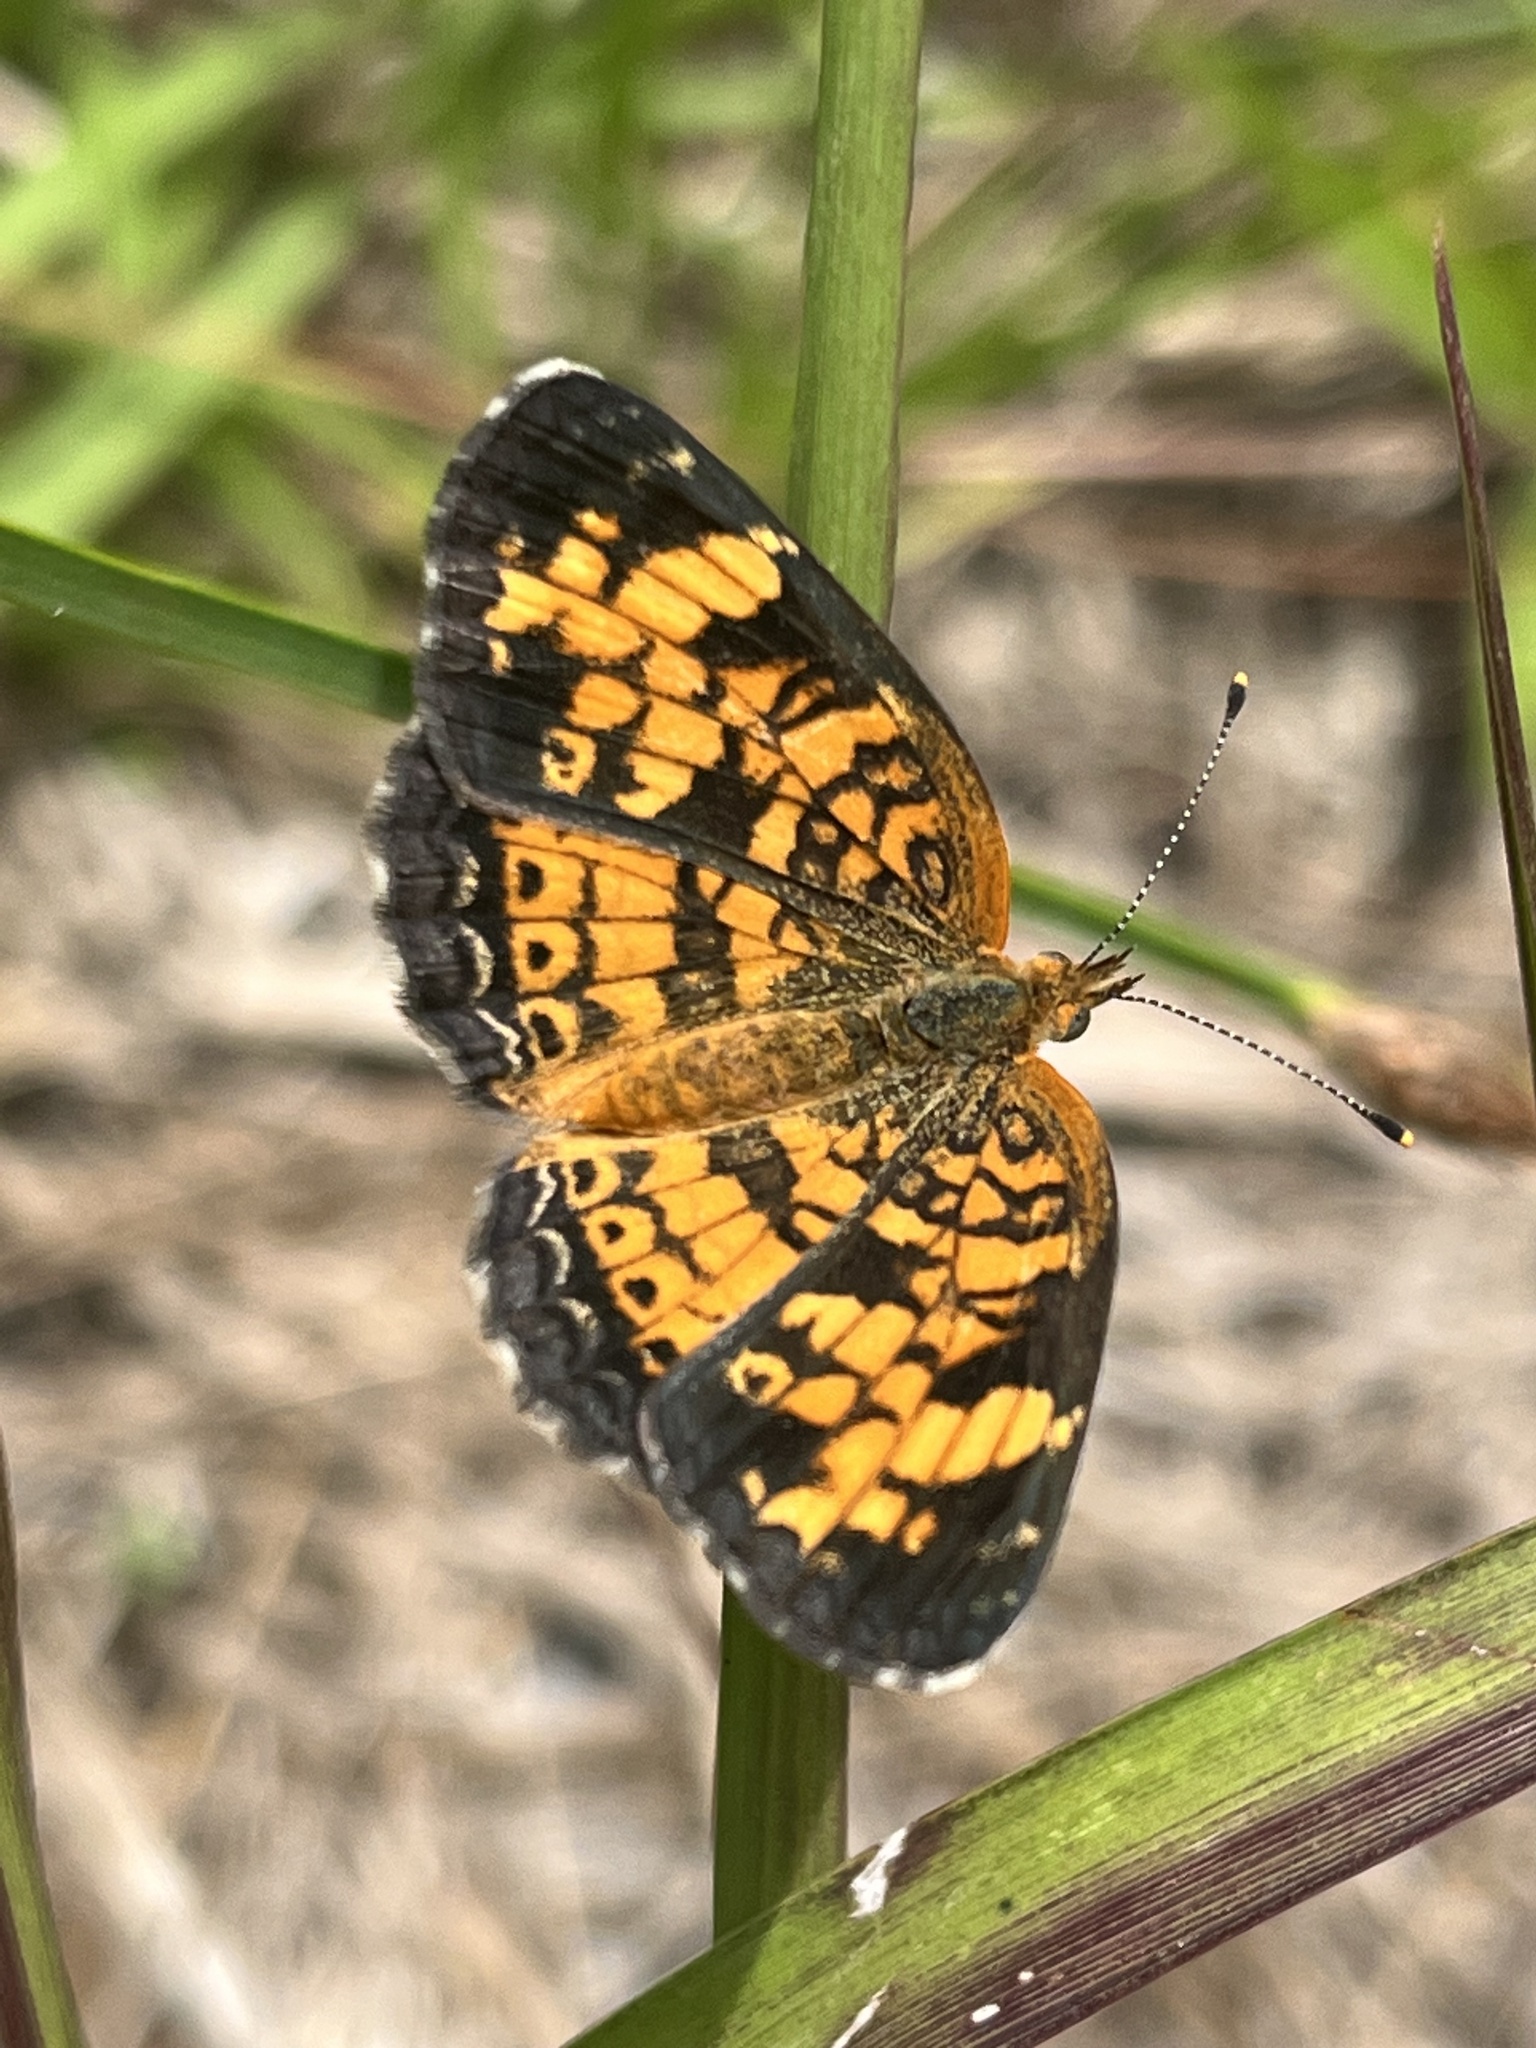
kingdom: Animalia
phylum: Arthropoda
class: Insecta
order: Lepidoptera
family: Nymphalidae
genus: Phyciodes
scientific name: Phyciodes tharos
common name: Pearl crescent
